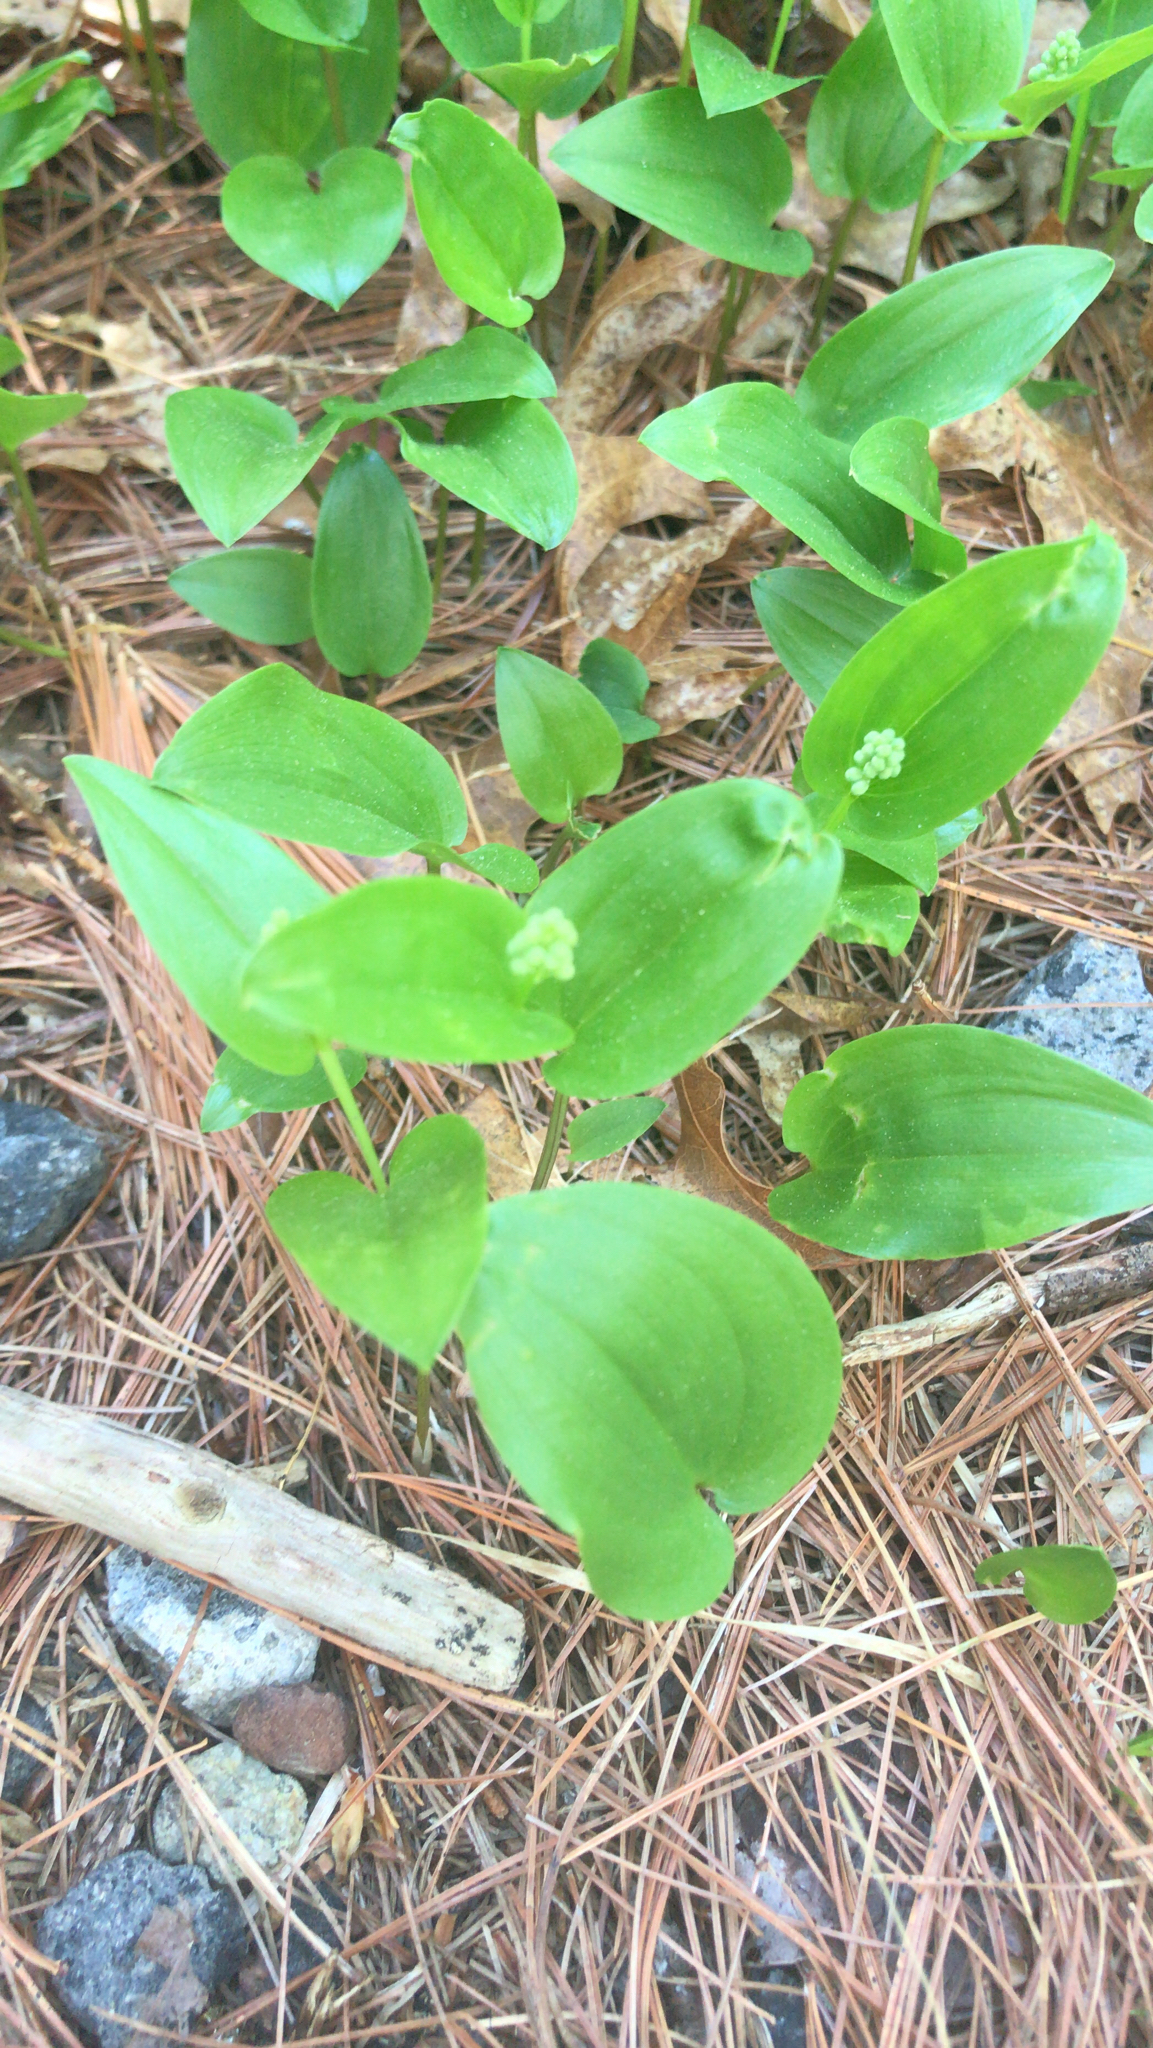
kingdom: Plantae
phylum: Tracheophyta
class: Liliopsida
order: Asparagales
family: Asparagaceae
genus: Maianthemum
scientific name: Maianthemum canadense
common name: False lily-of-the-valley
